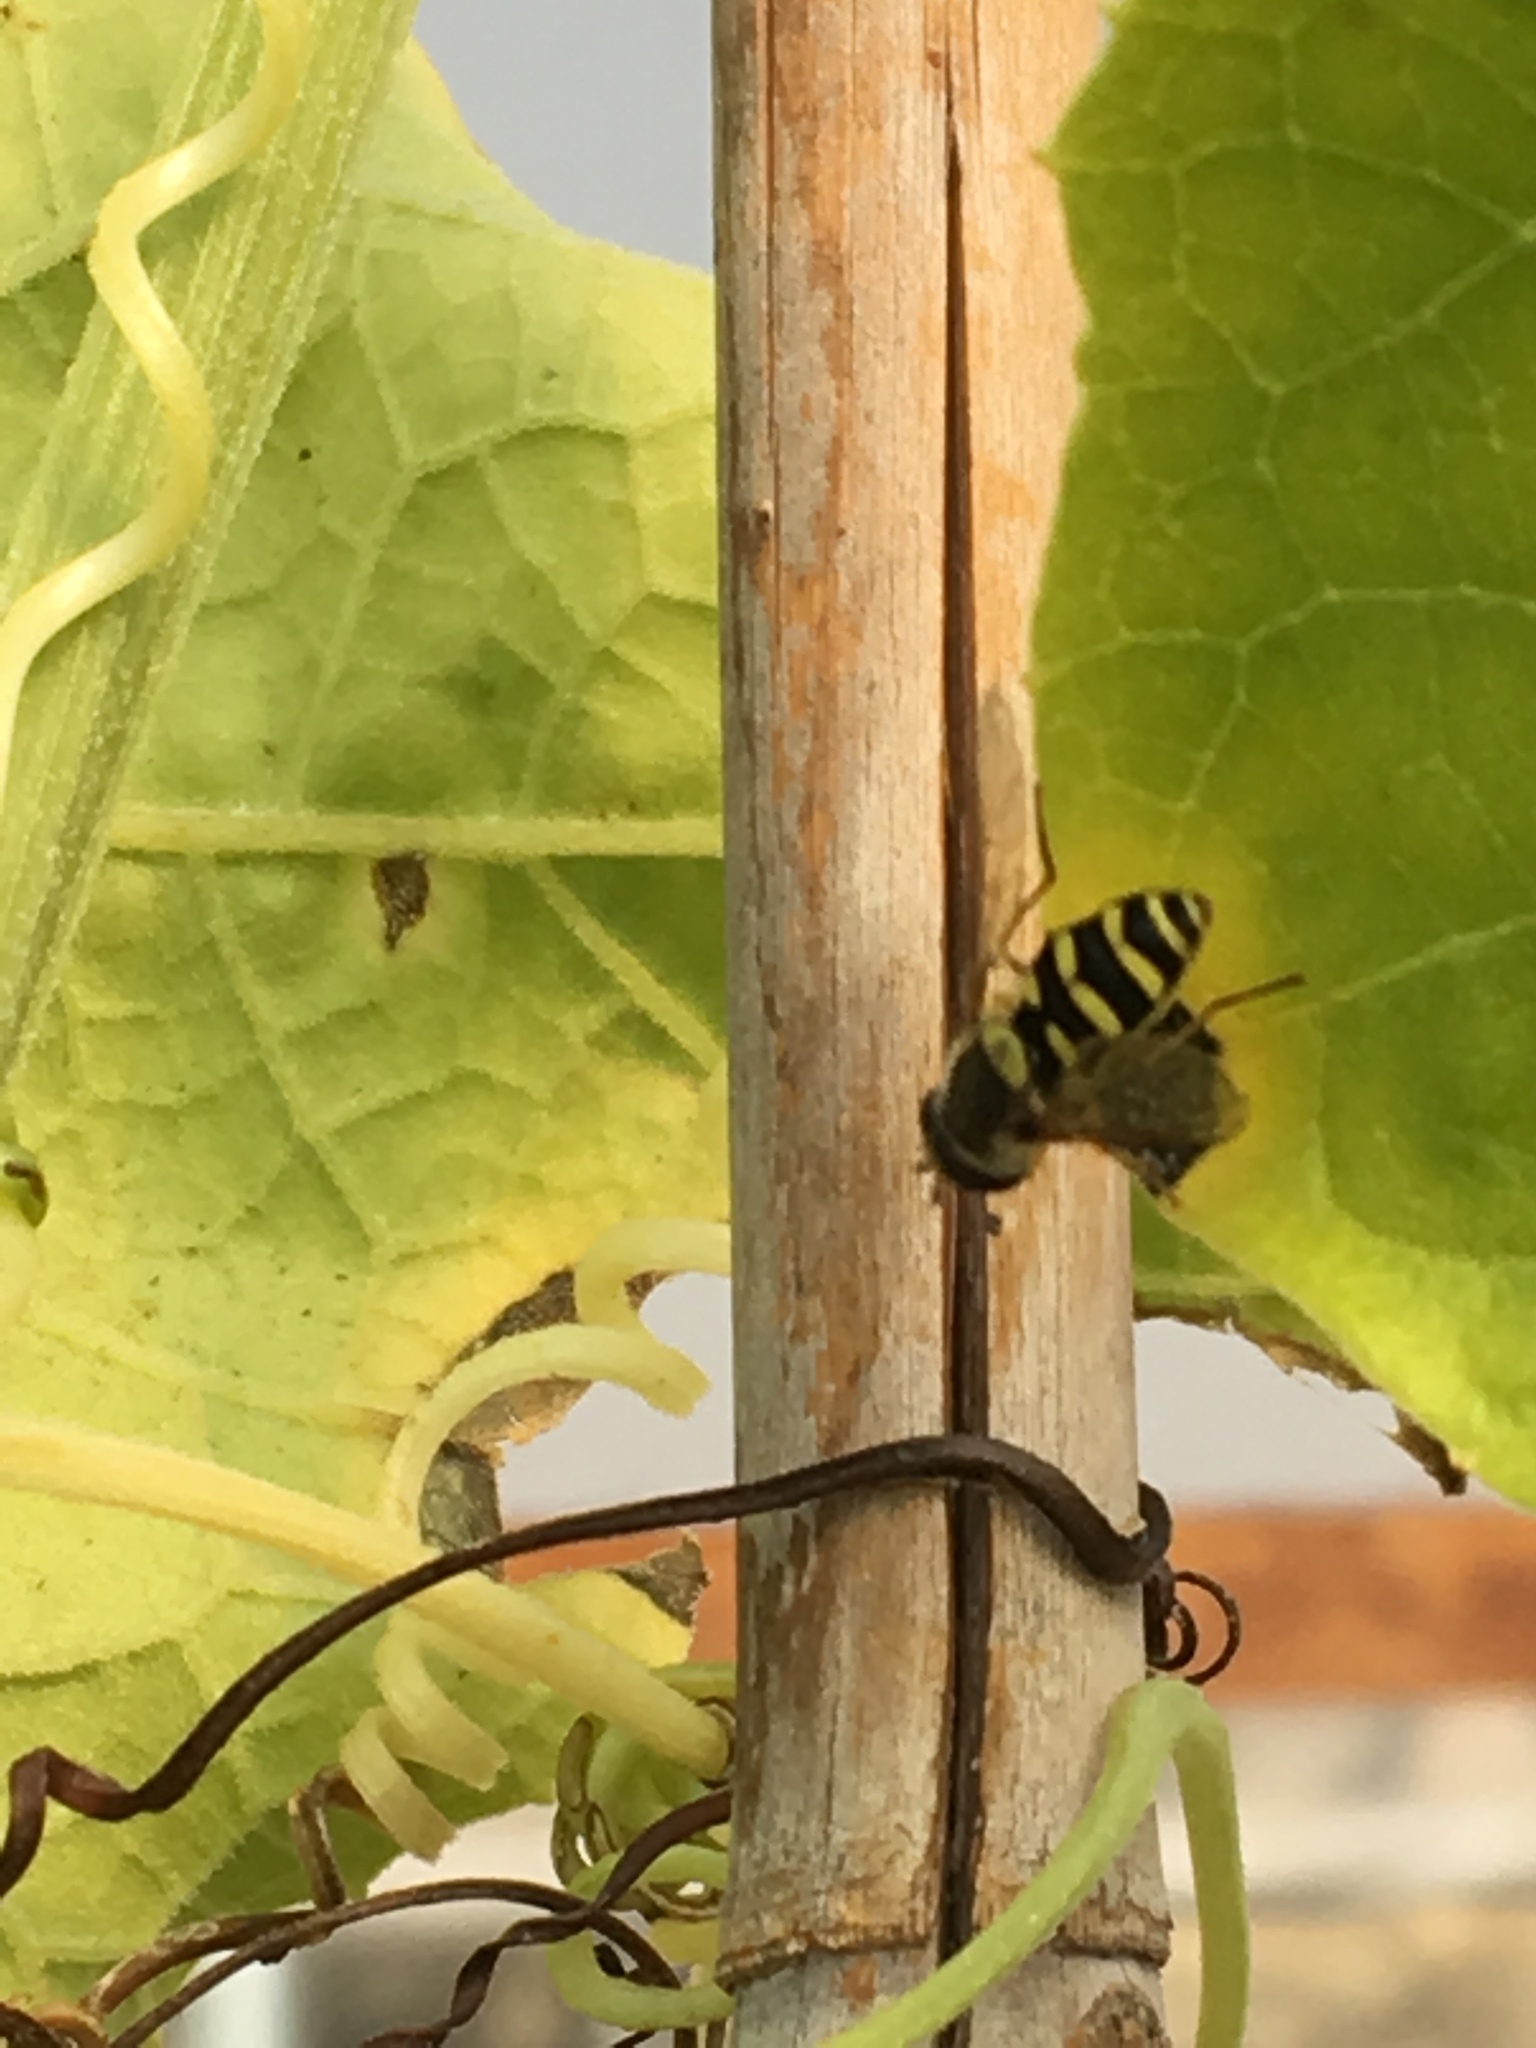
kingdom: Animalia
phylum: Arthropoda
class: Insecta
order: Diptera
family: Syrphidae
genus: Syrphus
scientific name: Syrphus opinator
